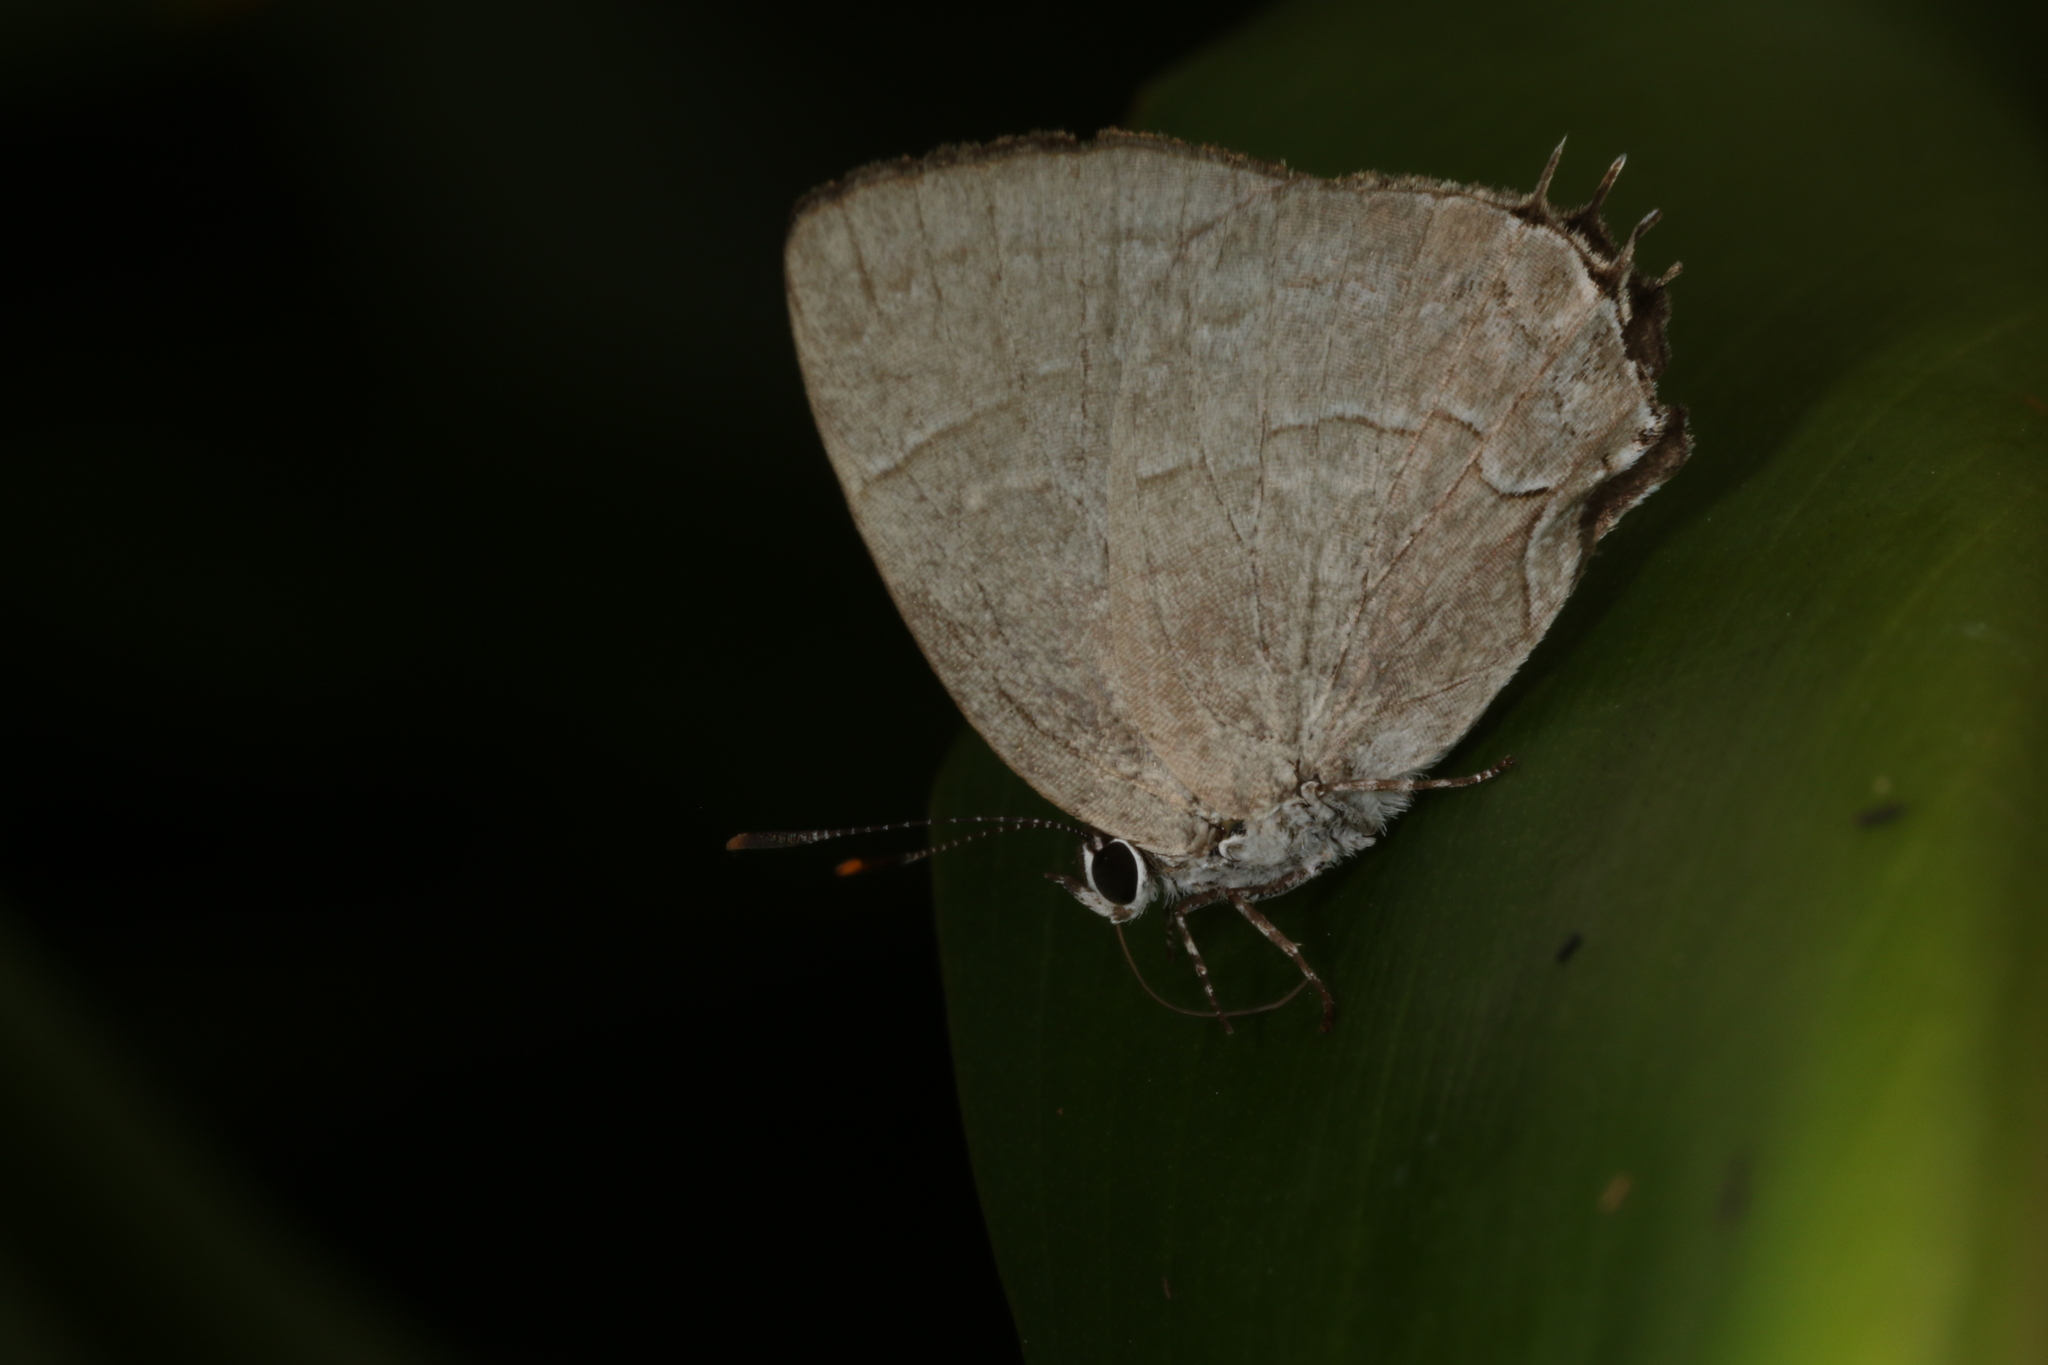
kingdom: Animalia
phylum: Arthropoda
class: Insecta
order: Lepidoptera
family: Lycaenidae
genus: Symbiopsis
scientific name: Symbiopsis lenitas
